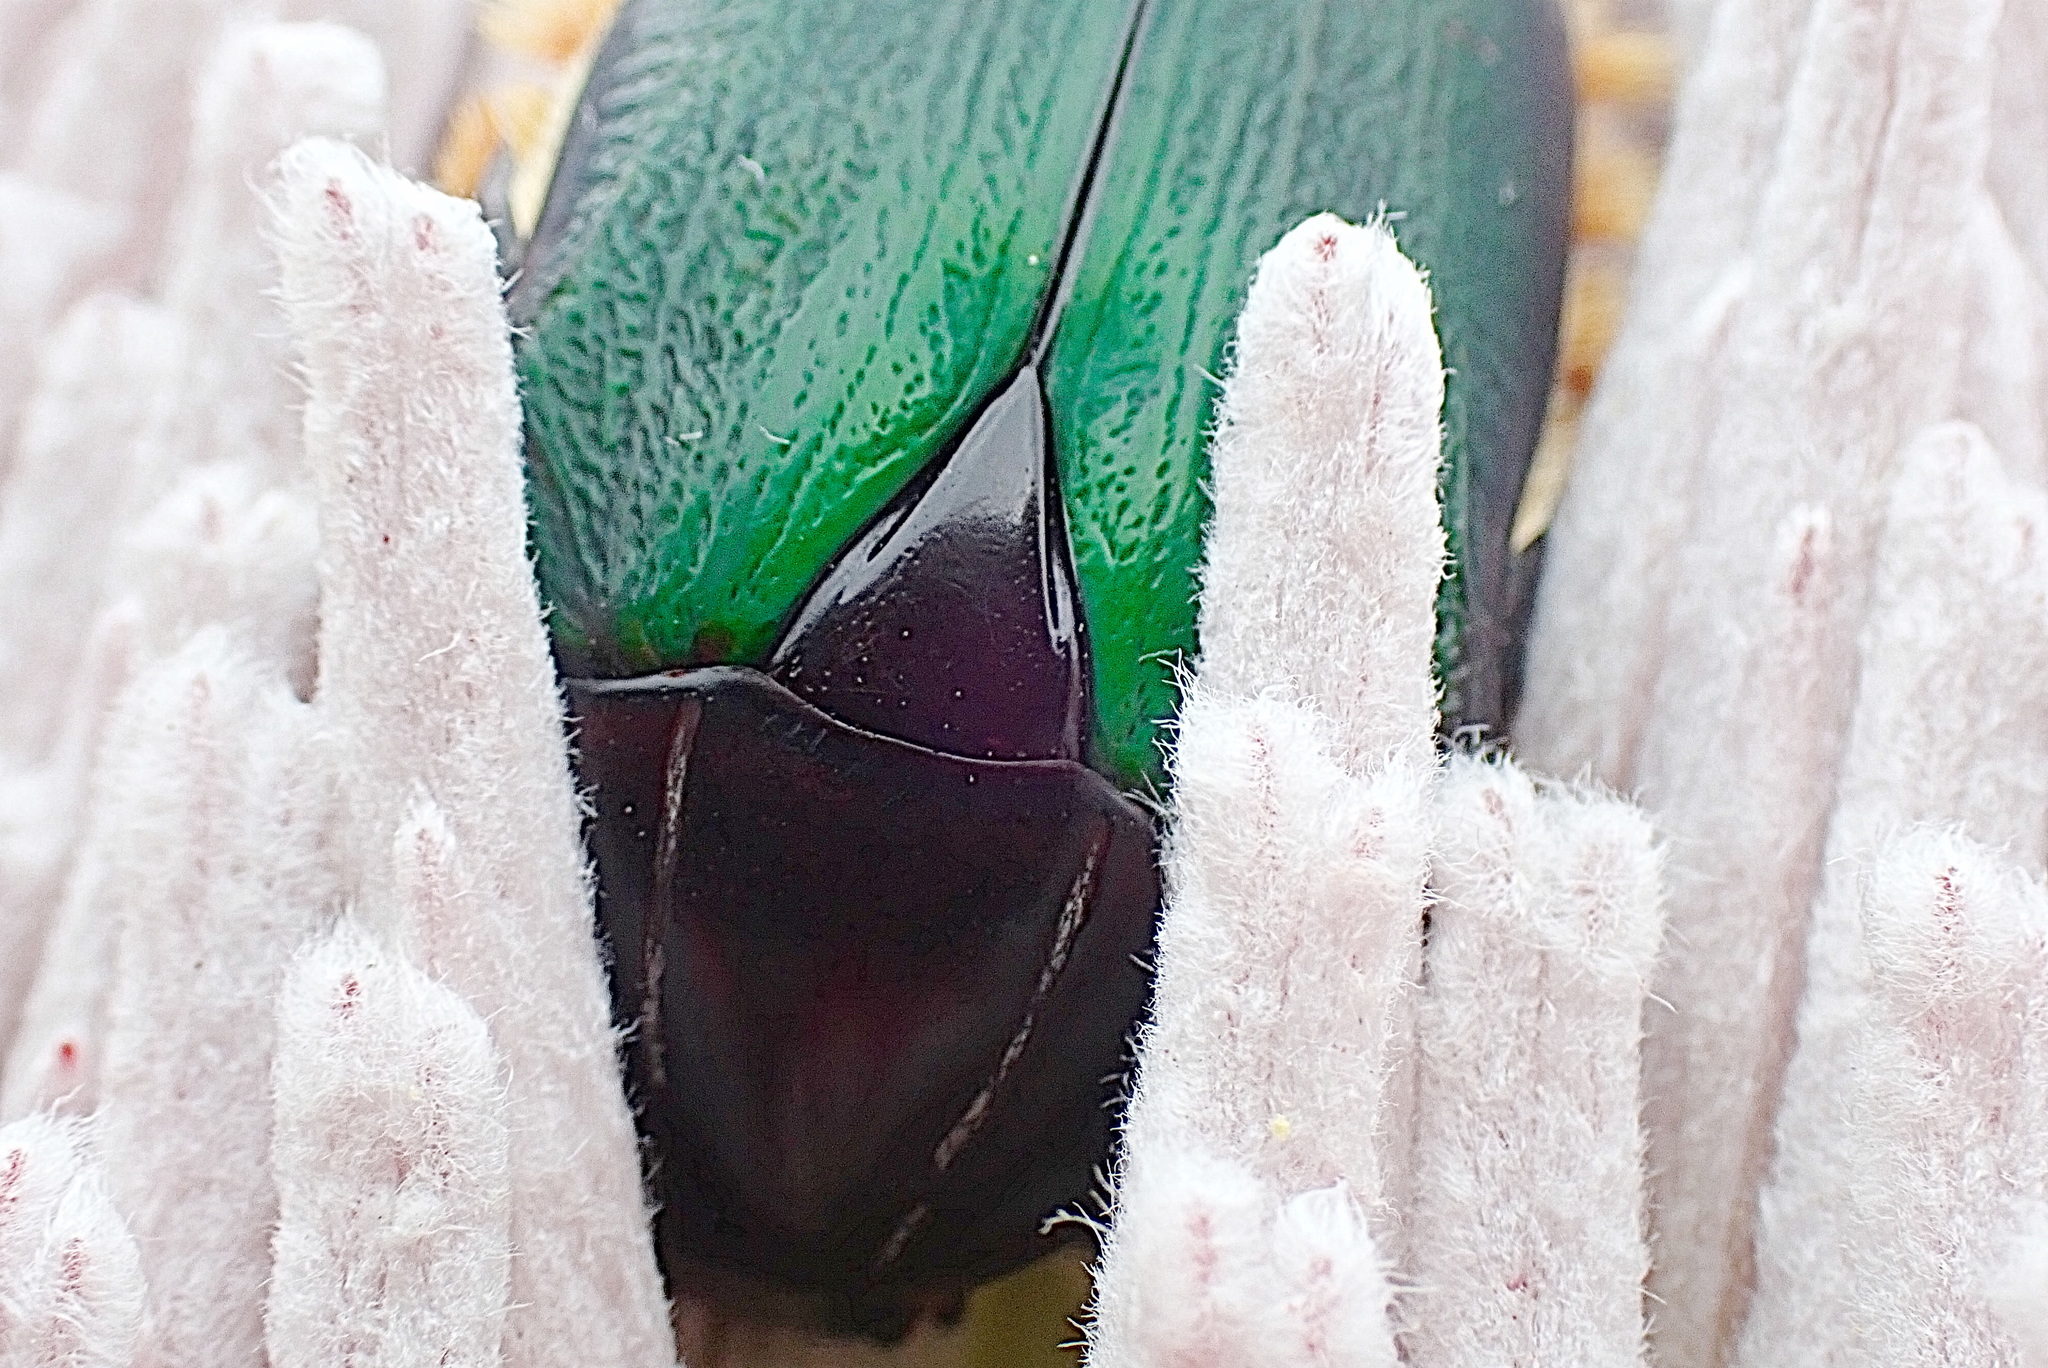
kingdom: Animalia
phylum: Arthropoda
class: Insecta
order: Coleoptera
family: Scarabaeidae
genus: Trichostetha
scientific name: Trichostetha fascicularis
